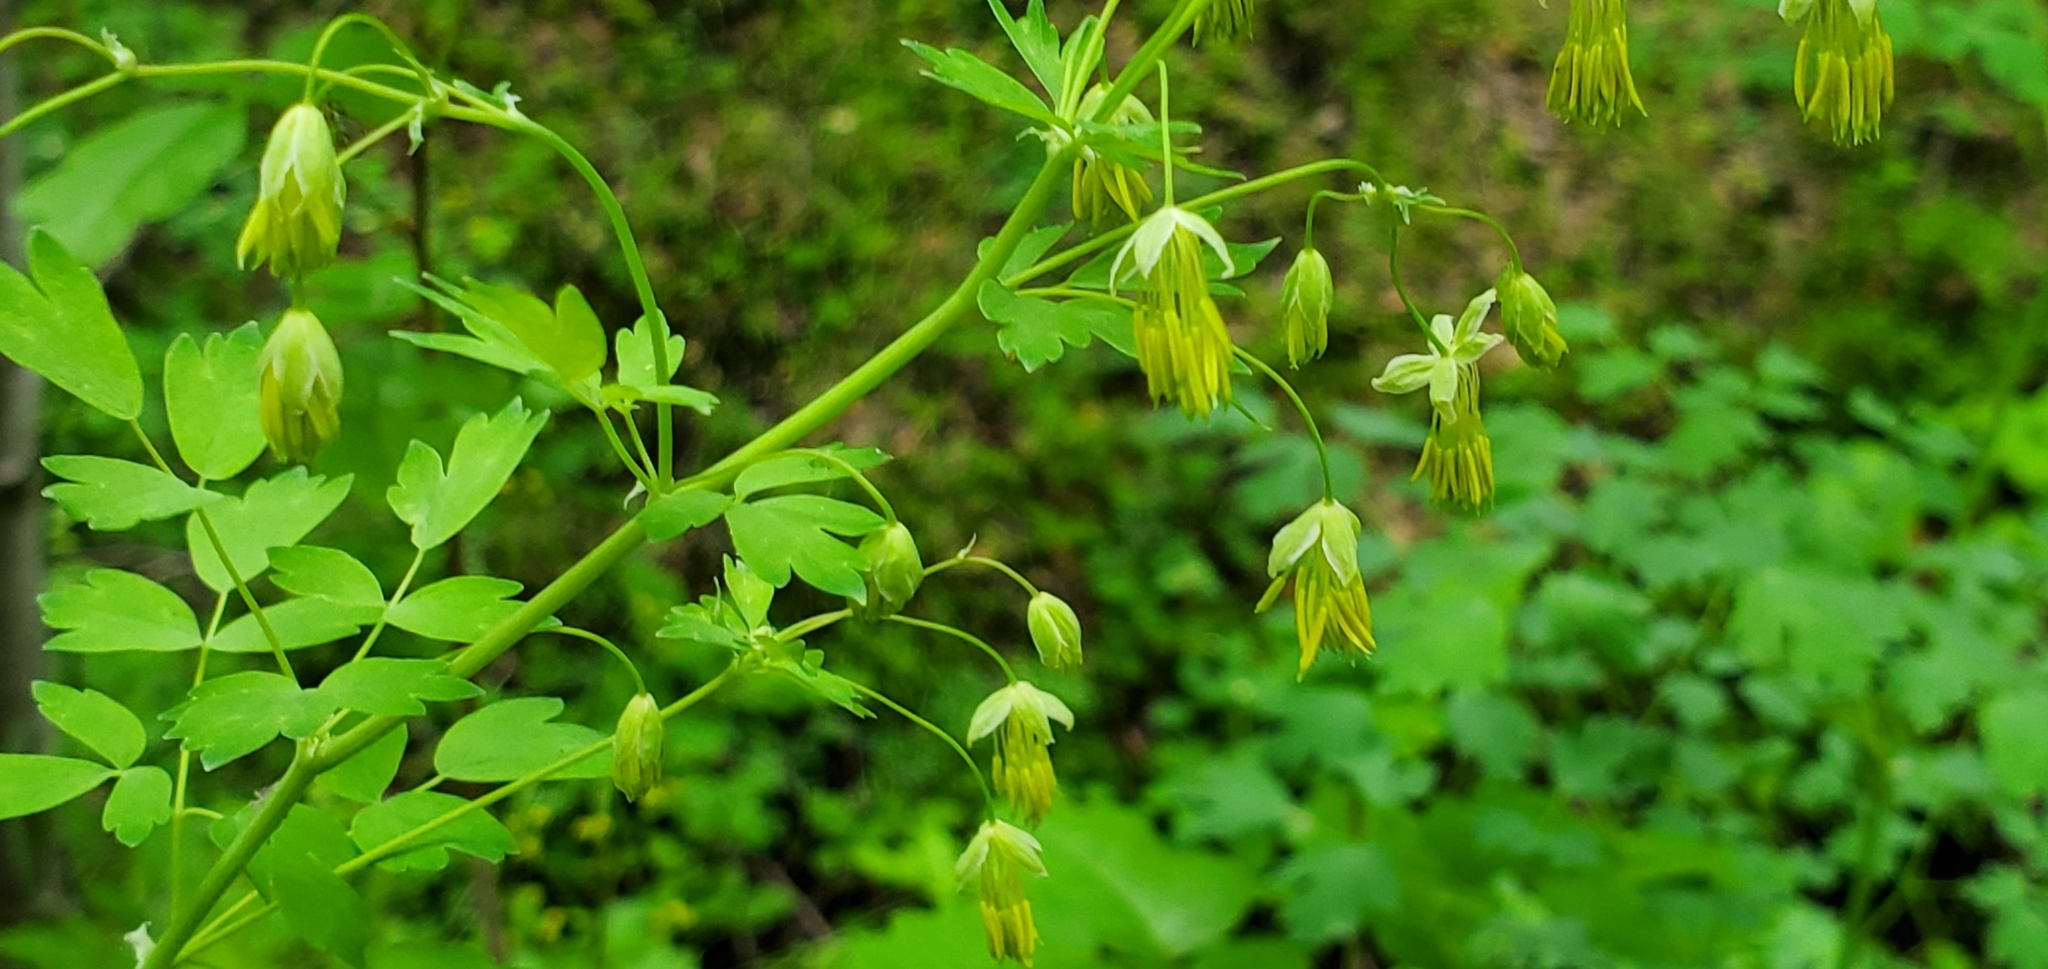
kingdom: Plantae
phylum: Tracheophyta
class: Magnoliopsida
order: Ranunculales
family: Ranunculaceae
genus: Thalictrum
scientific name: Thalictrum fendleri
